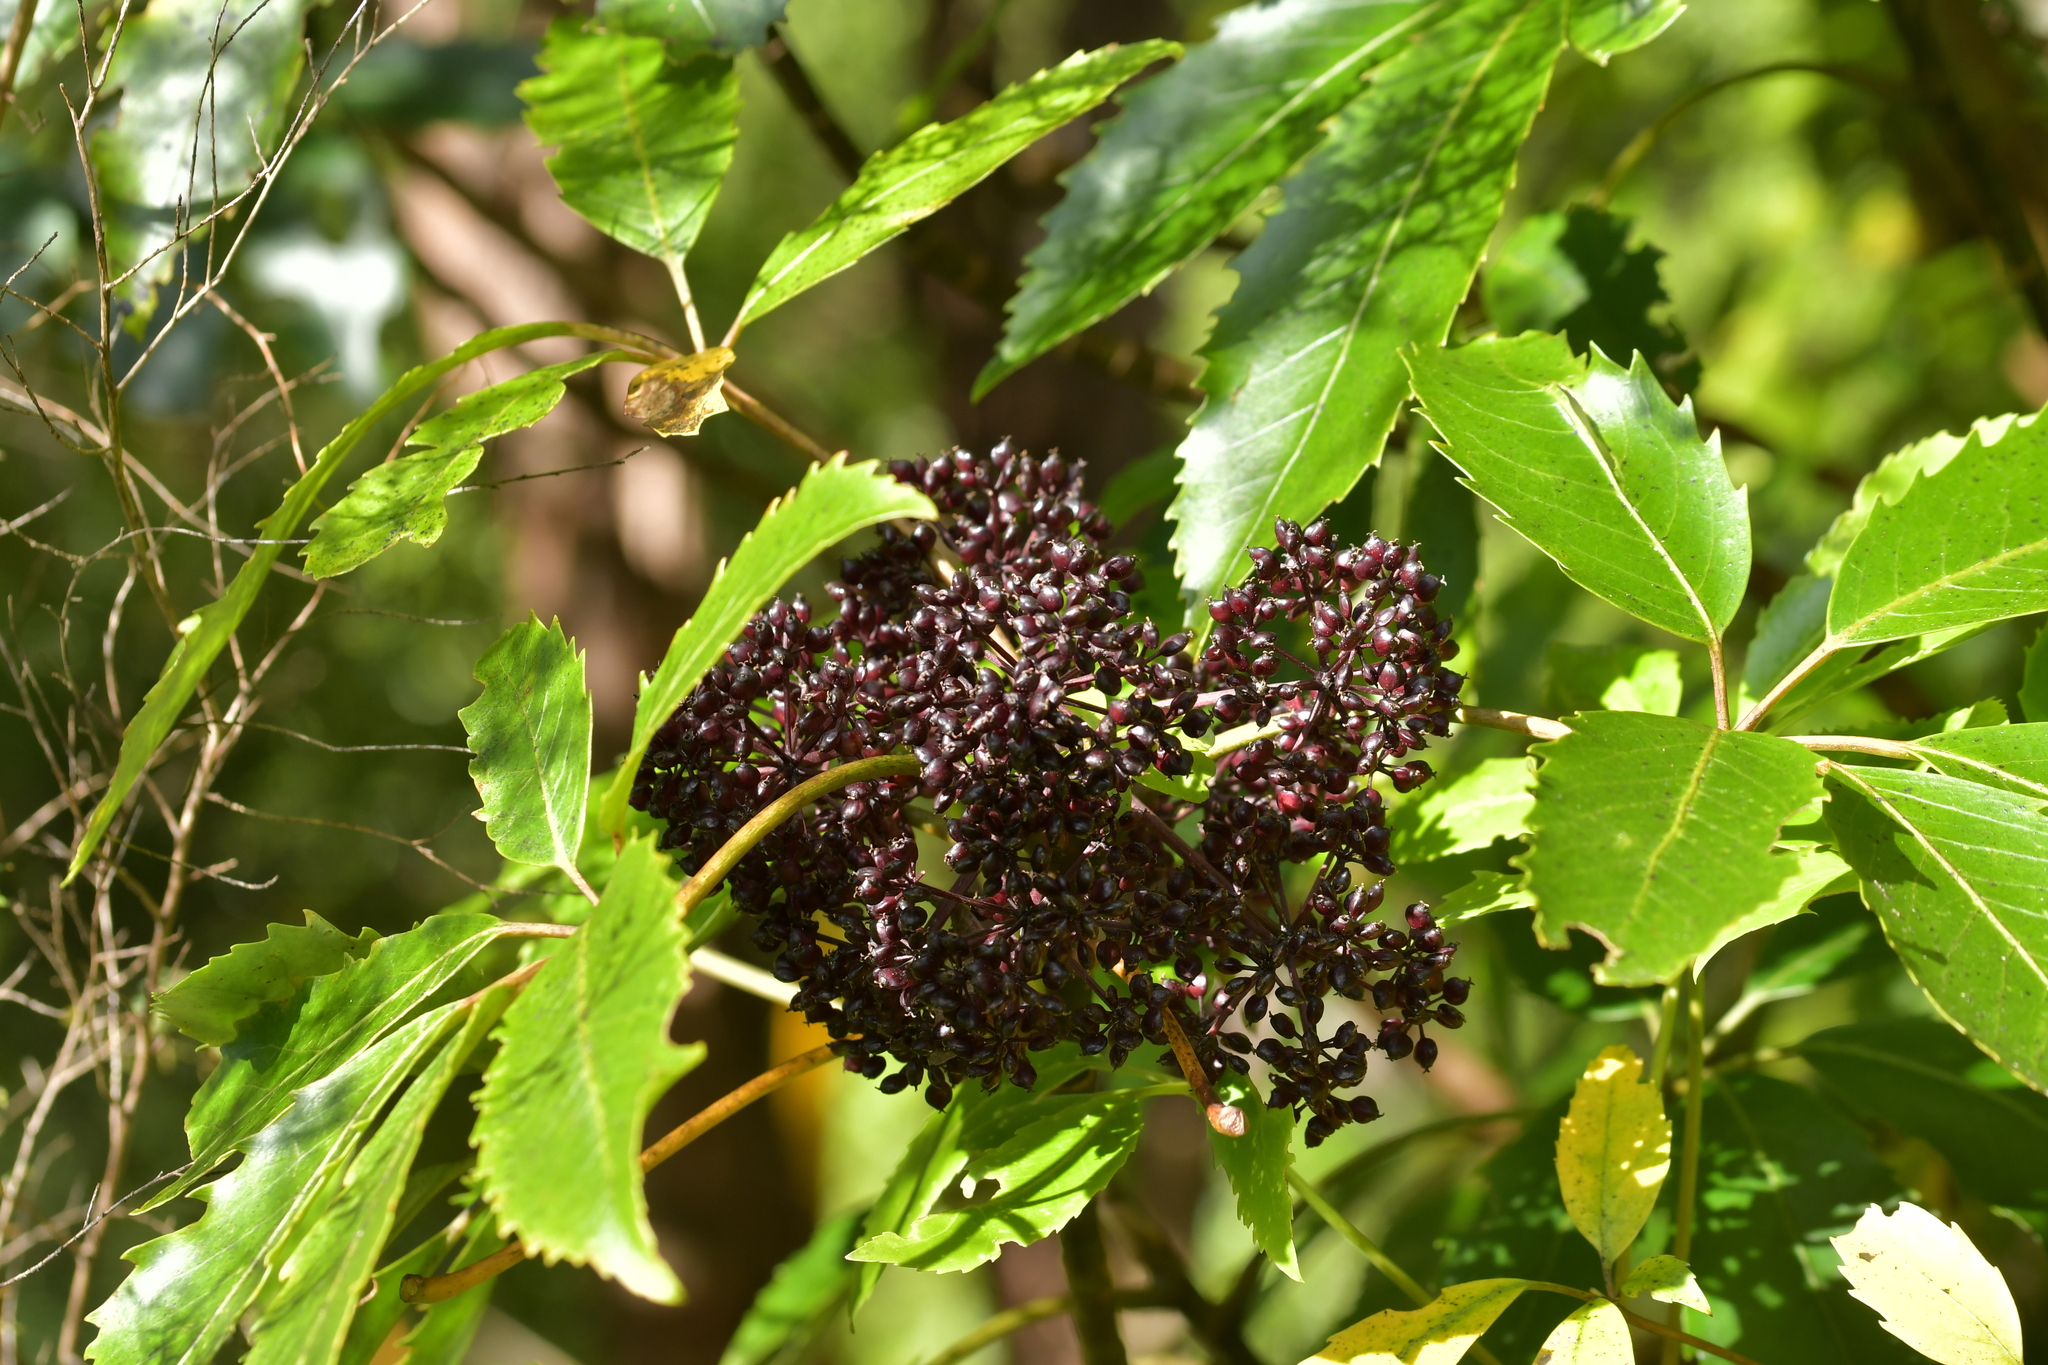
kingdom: Plantae
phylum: Tracheophyta
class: Magnoliopsida
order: Apiales
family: Araliaceae
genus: Neopanax
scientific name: Neopanax arboreus
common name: Five-fingers
